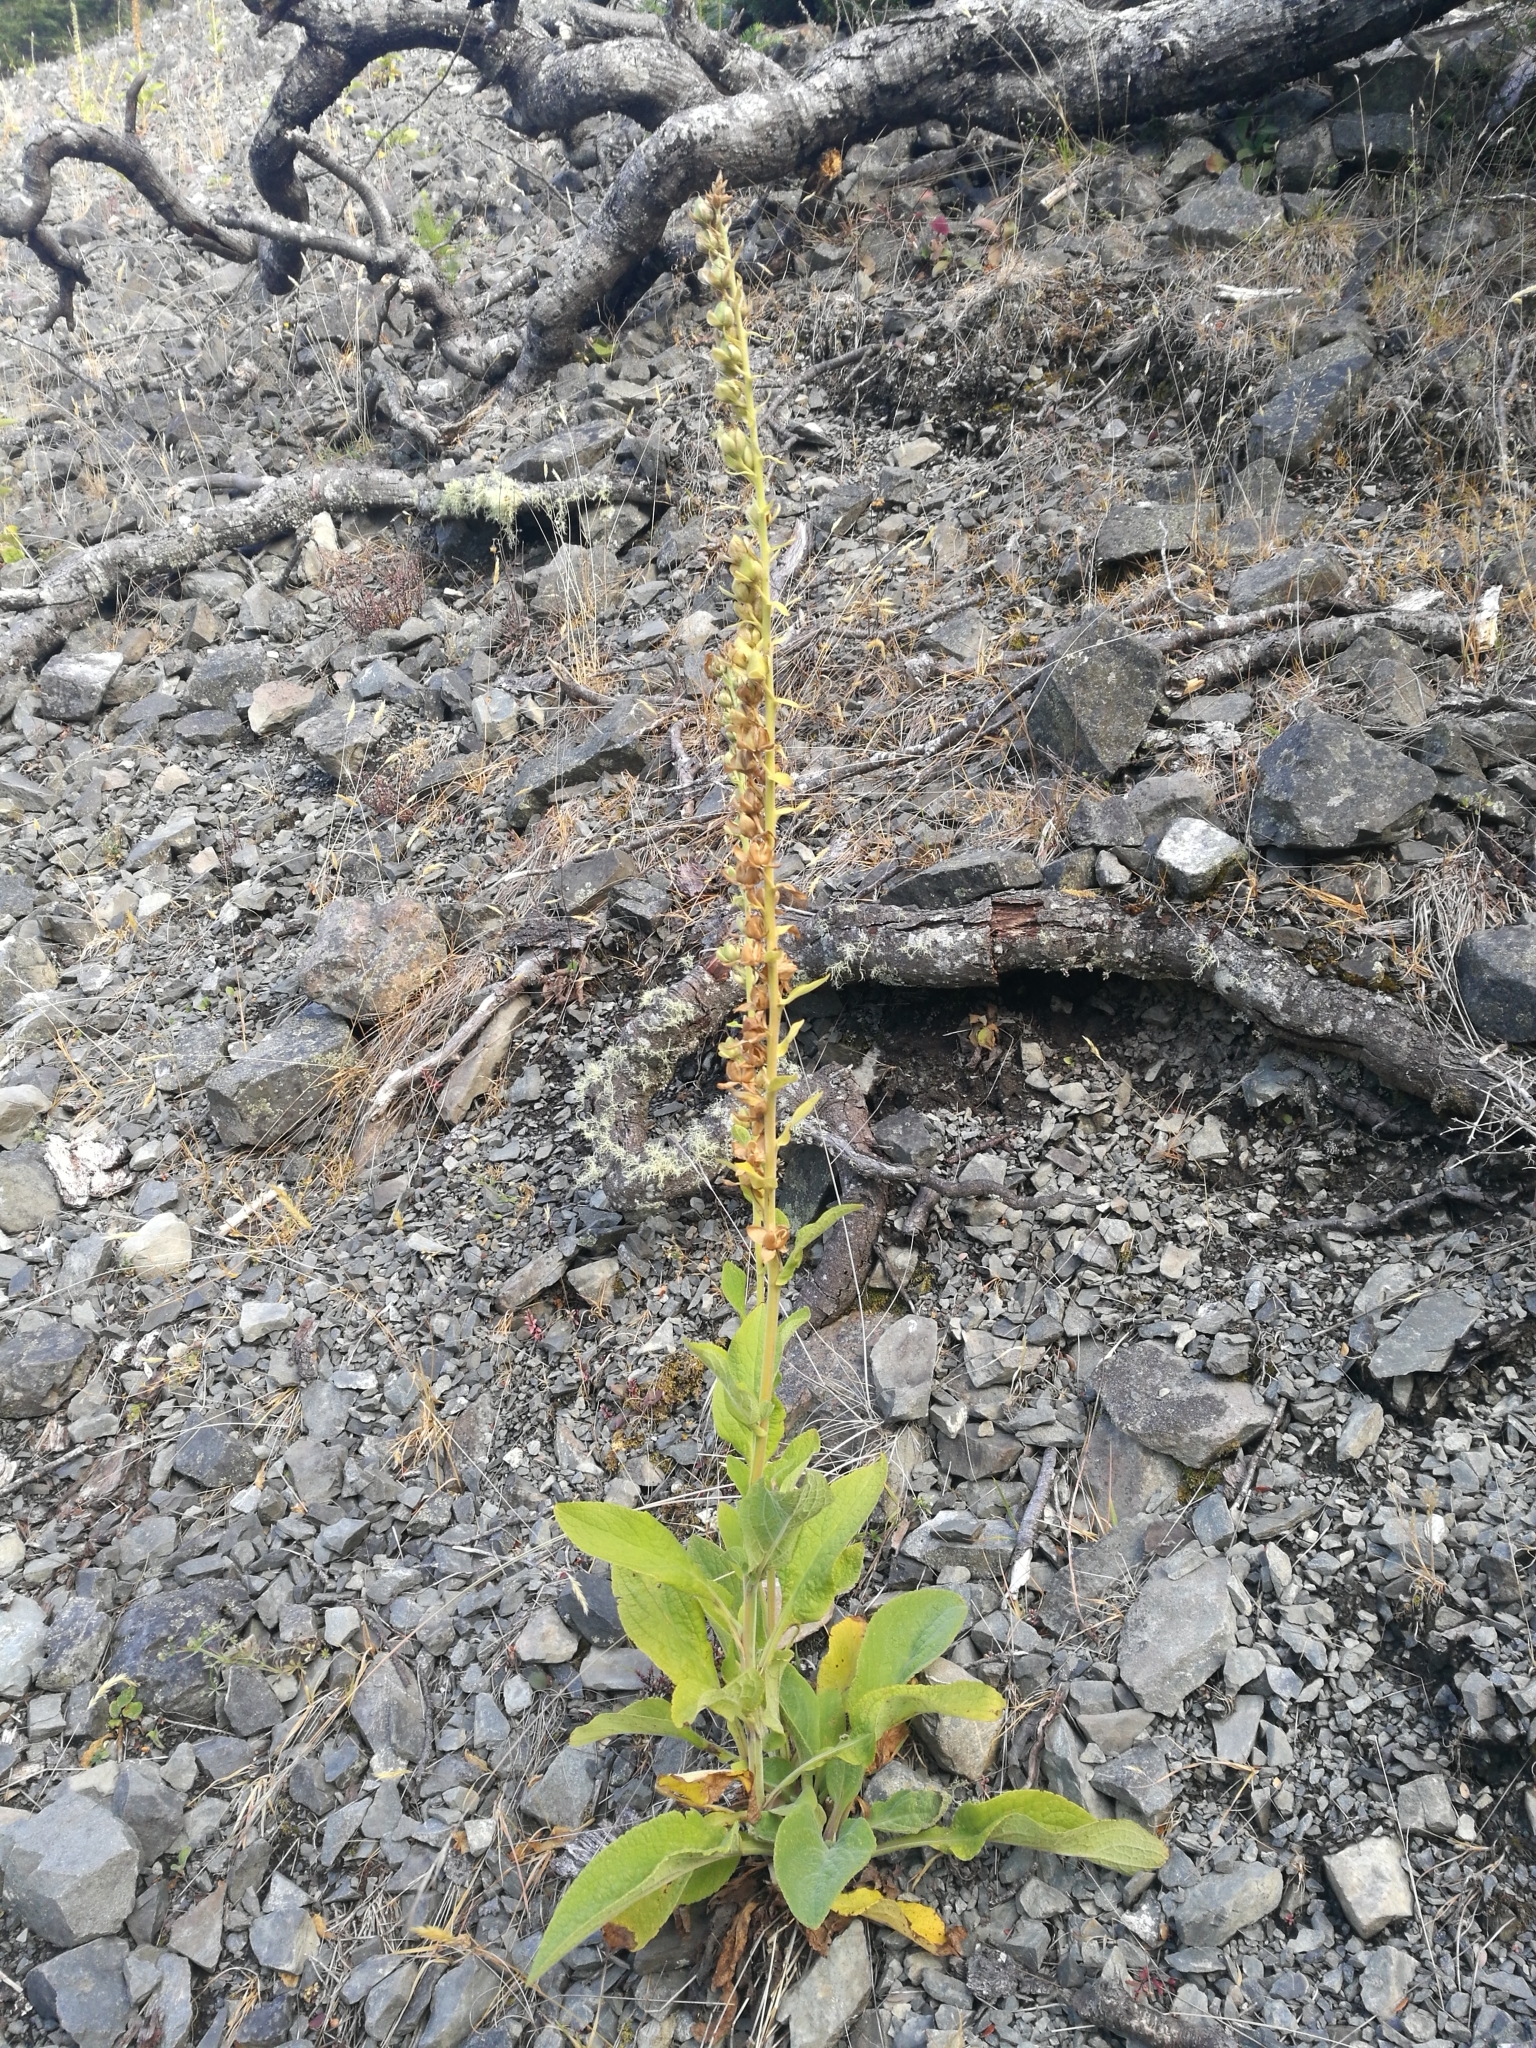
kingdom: Plantae
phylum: Tracheophyta
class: Magnoliopsida
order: Lamiales
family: Plantaginaceae
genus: Digitalis
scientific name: Digitalis purpurea
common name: Foxglove
